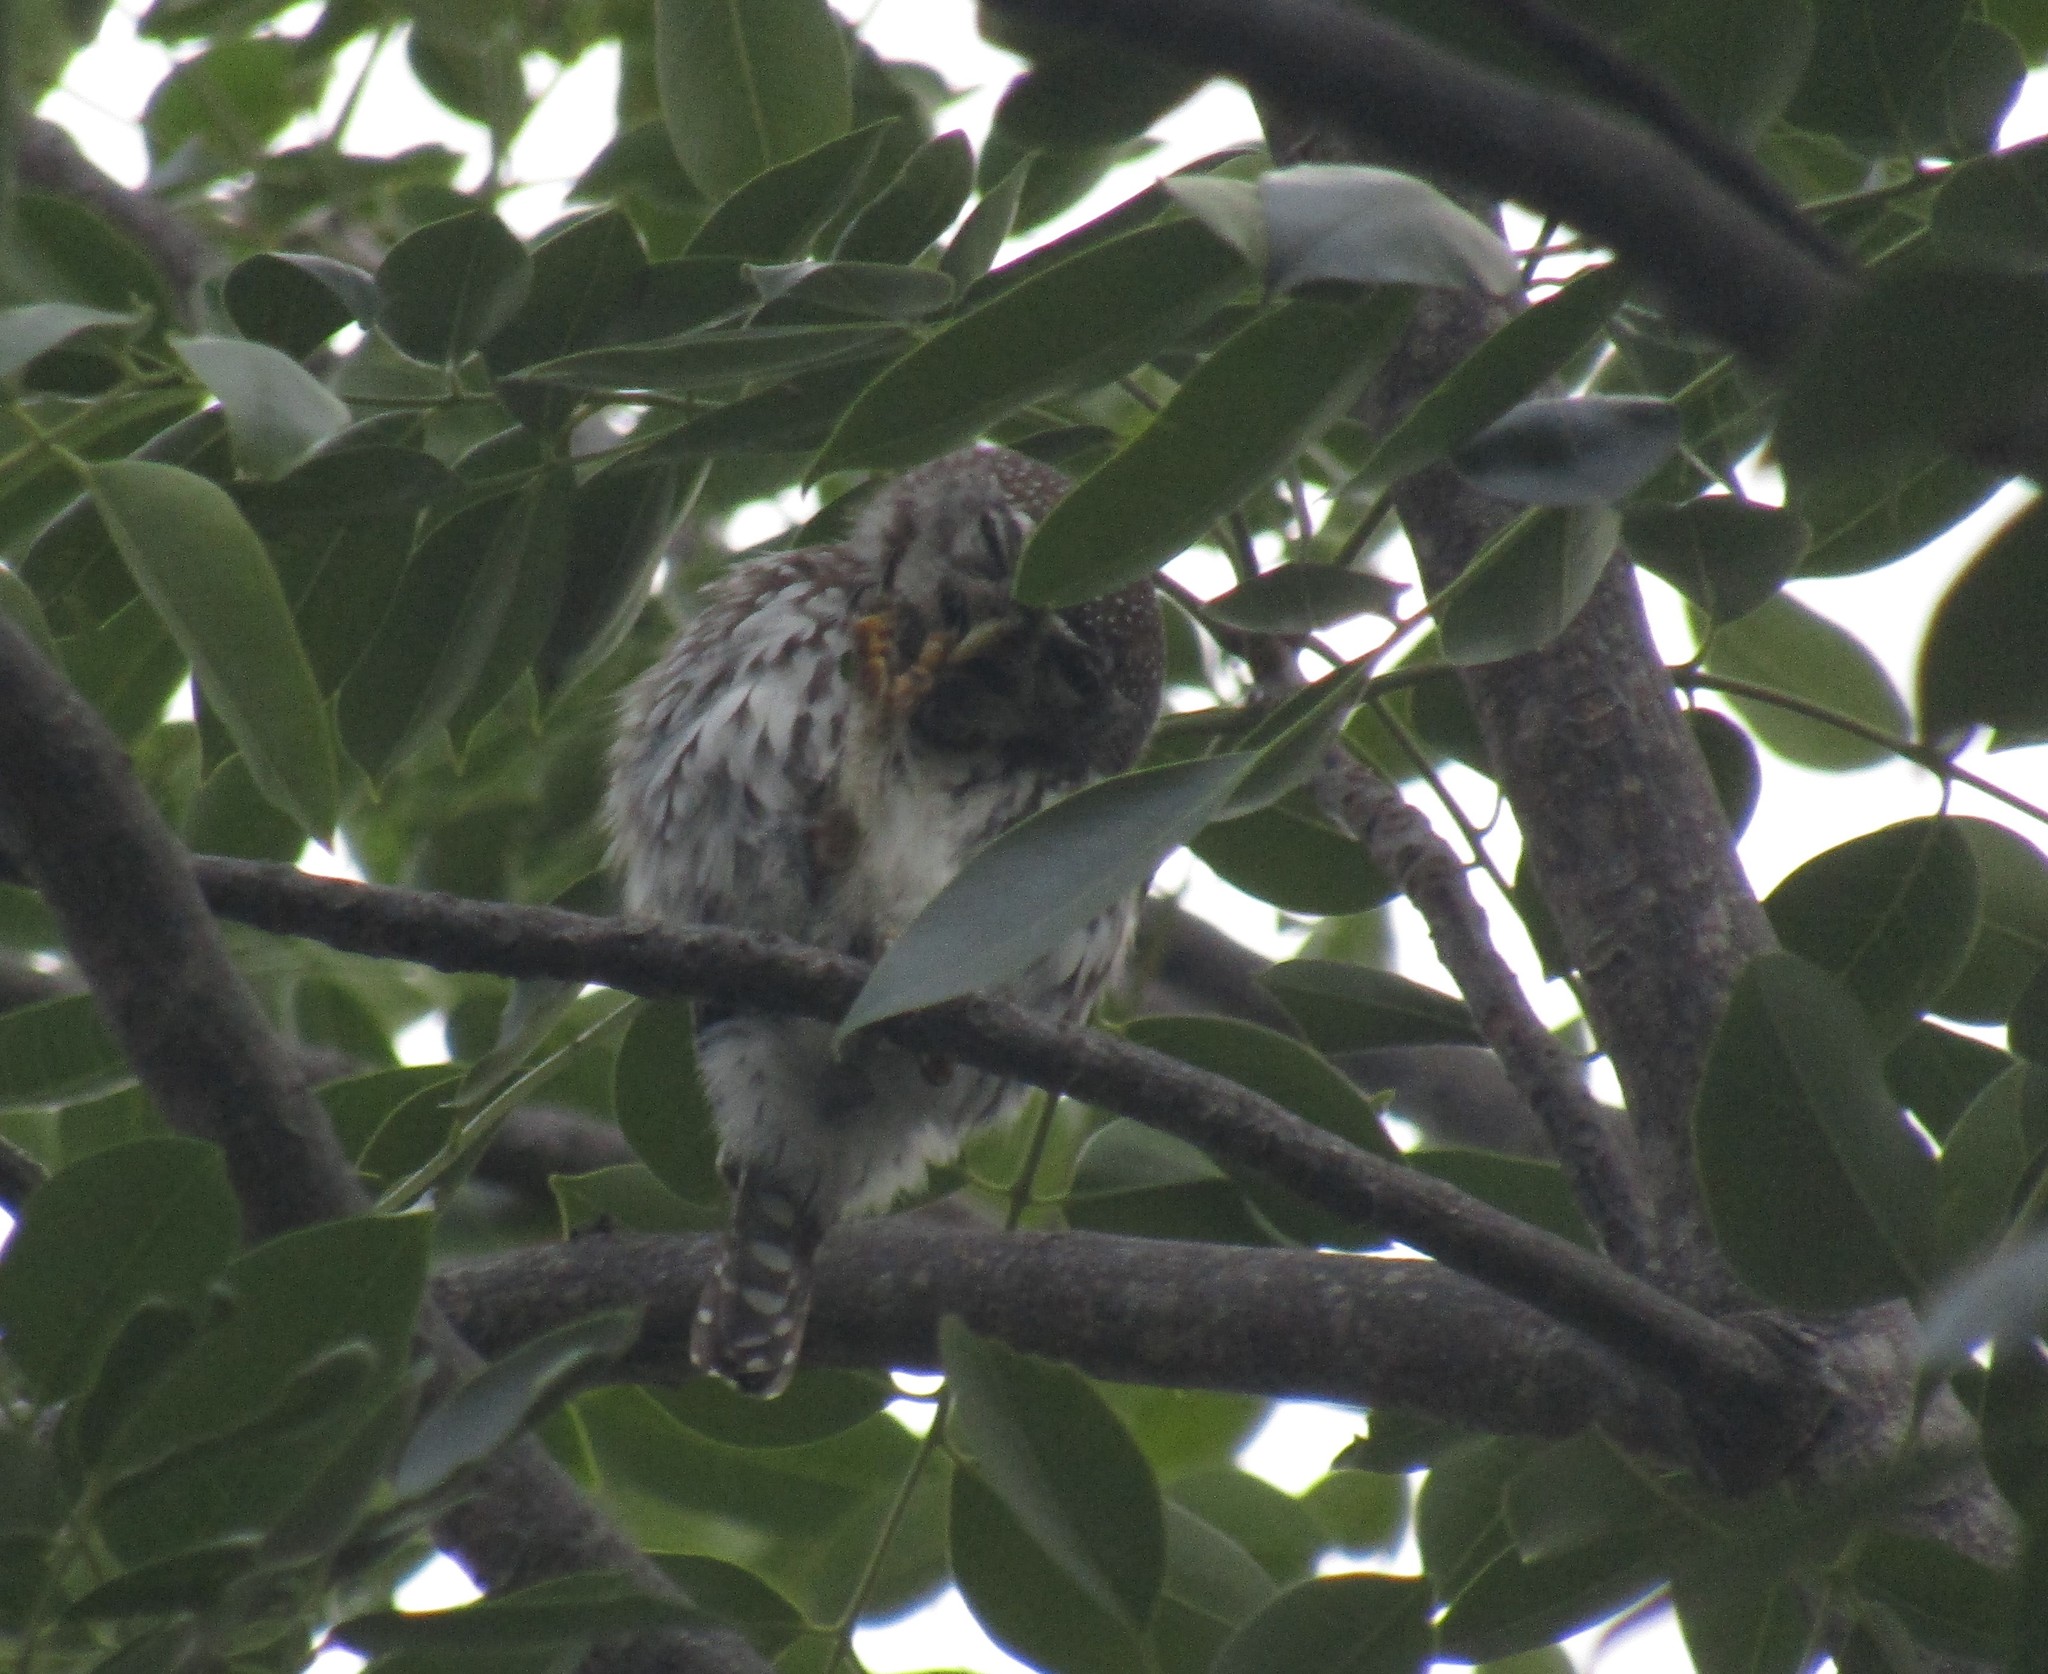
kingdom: Animalia
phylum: Chordata
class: Aves
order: Strigiformes
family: Strigidae
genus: Glaucidium
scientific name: Glaucidium perlatum
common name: Pearl-spotted owlet
